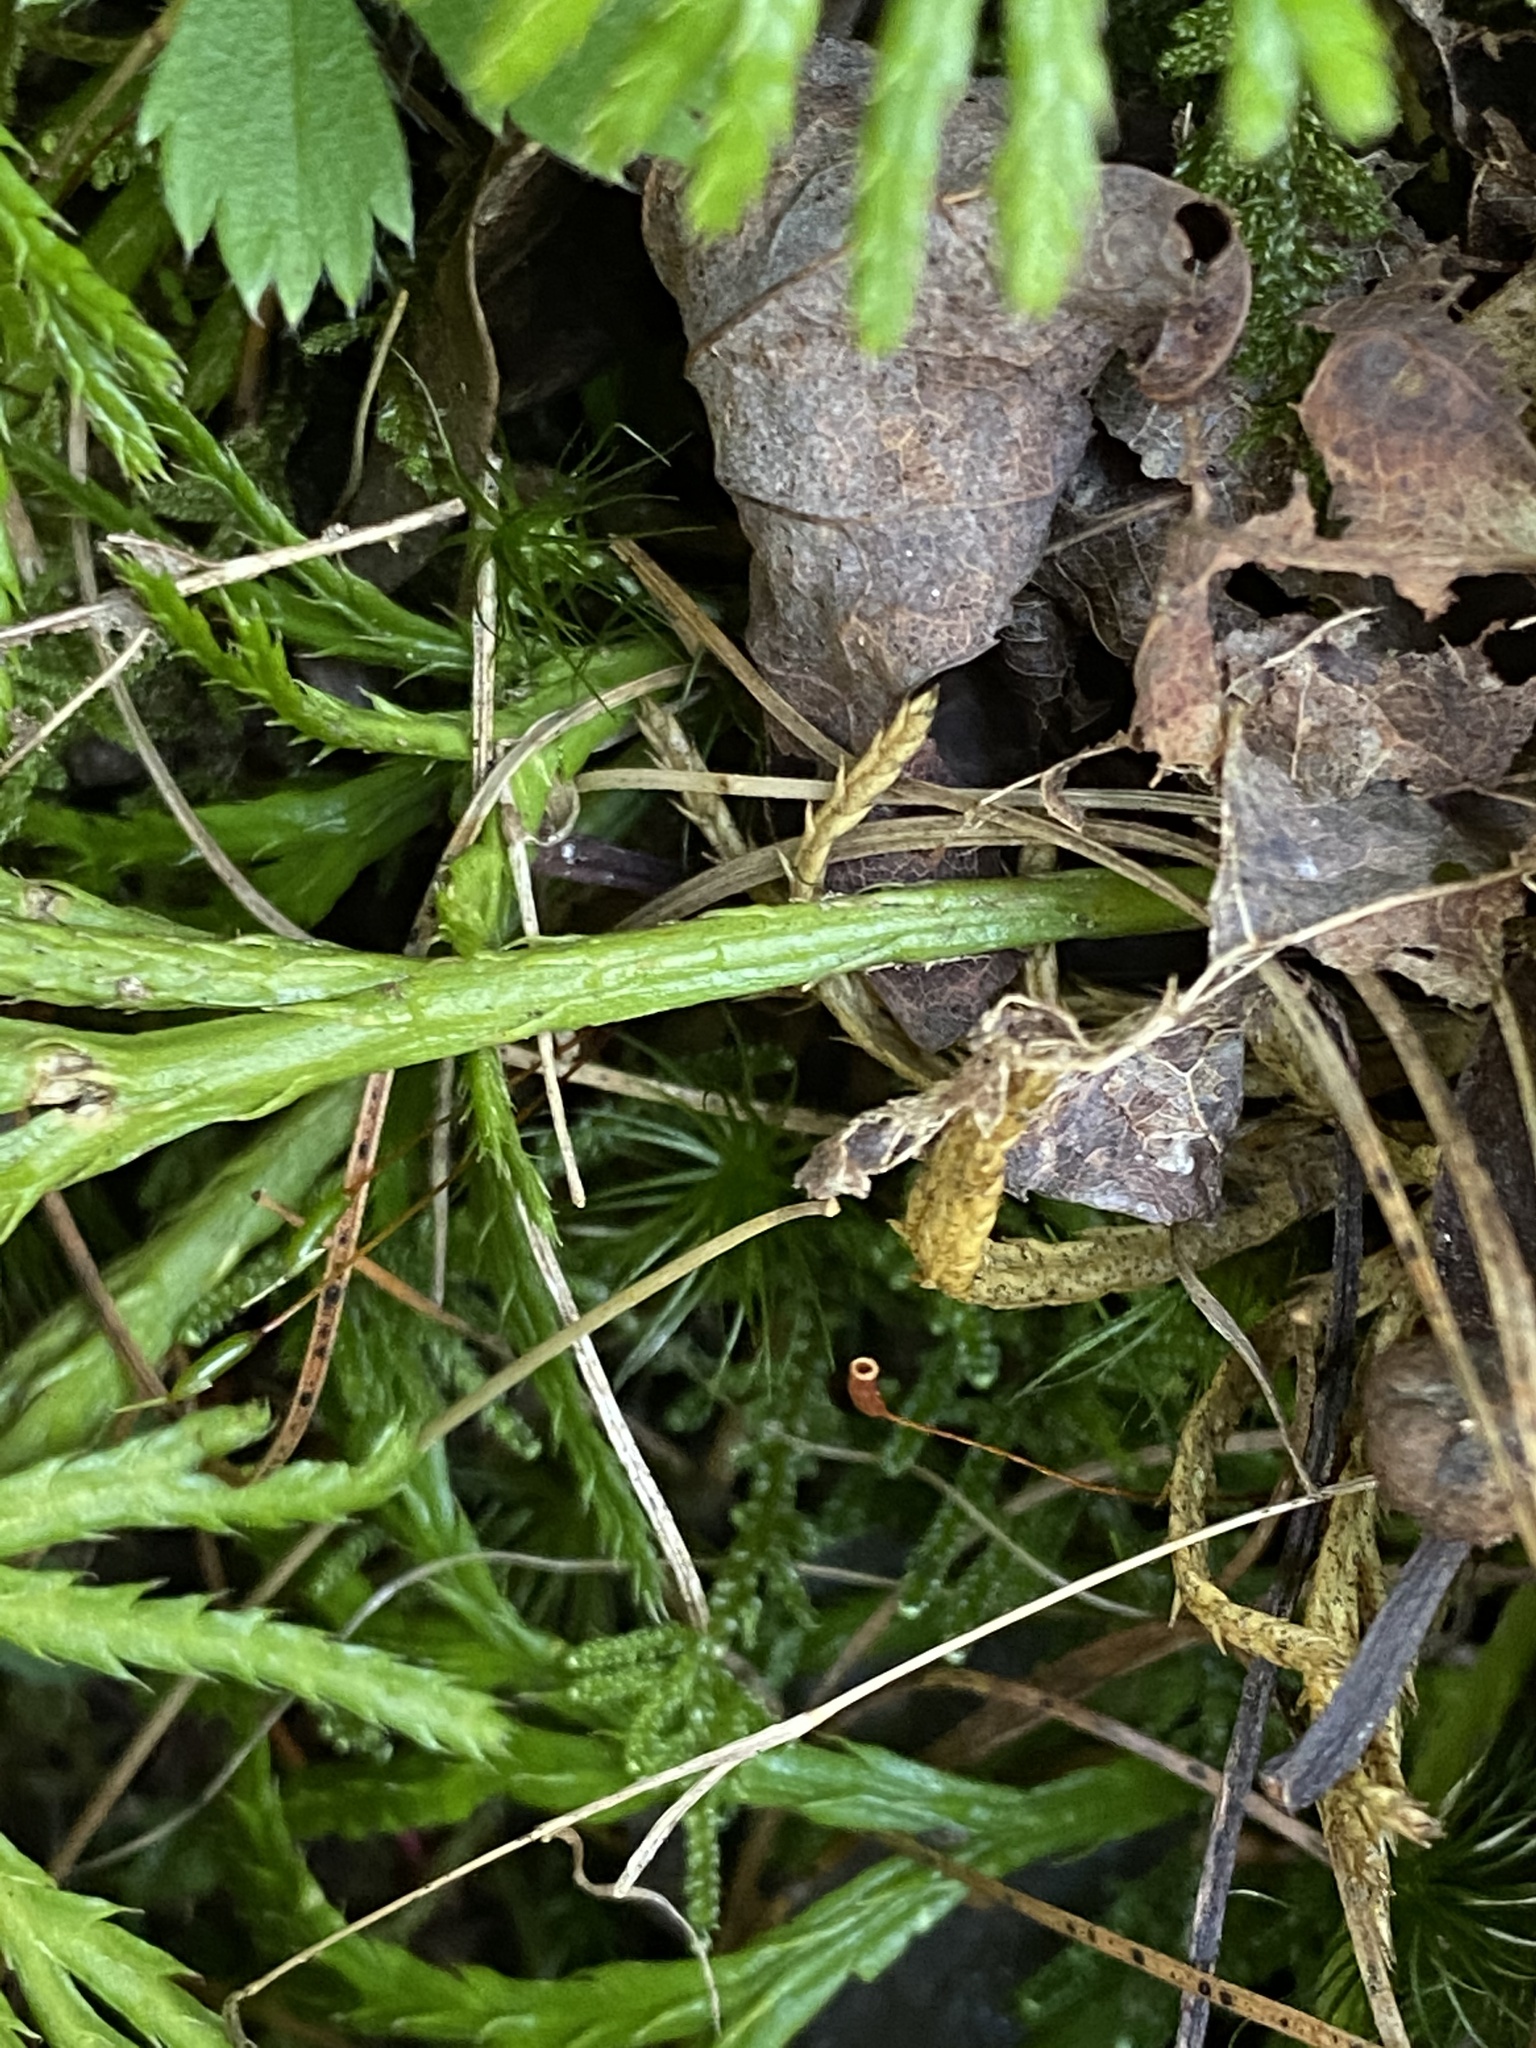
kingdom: Plantae
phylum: Tracheophyta
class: Lycopodiopsida
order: Lycopodiales
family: Lycopodiaceae
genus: Diphasiastrum
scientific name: Diphasiastrum digitatum
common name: Southern running-pine
